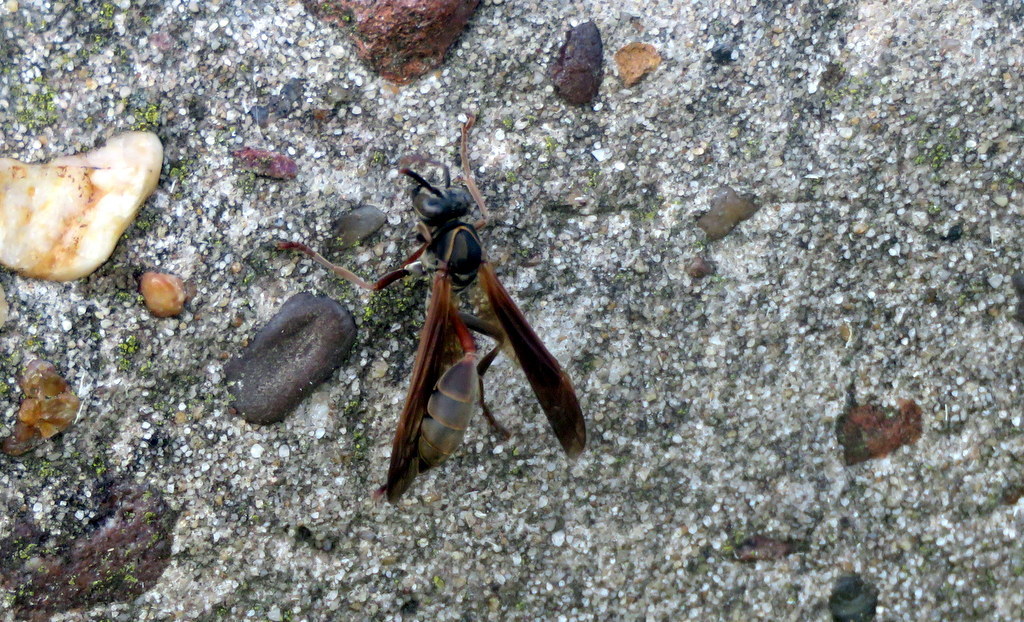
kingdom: Animalia
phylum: Arthropoda
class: Insecta
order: Hymenoptera
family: Eumenidae
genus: Polybia
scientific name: Polybia sericea
